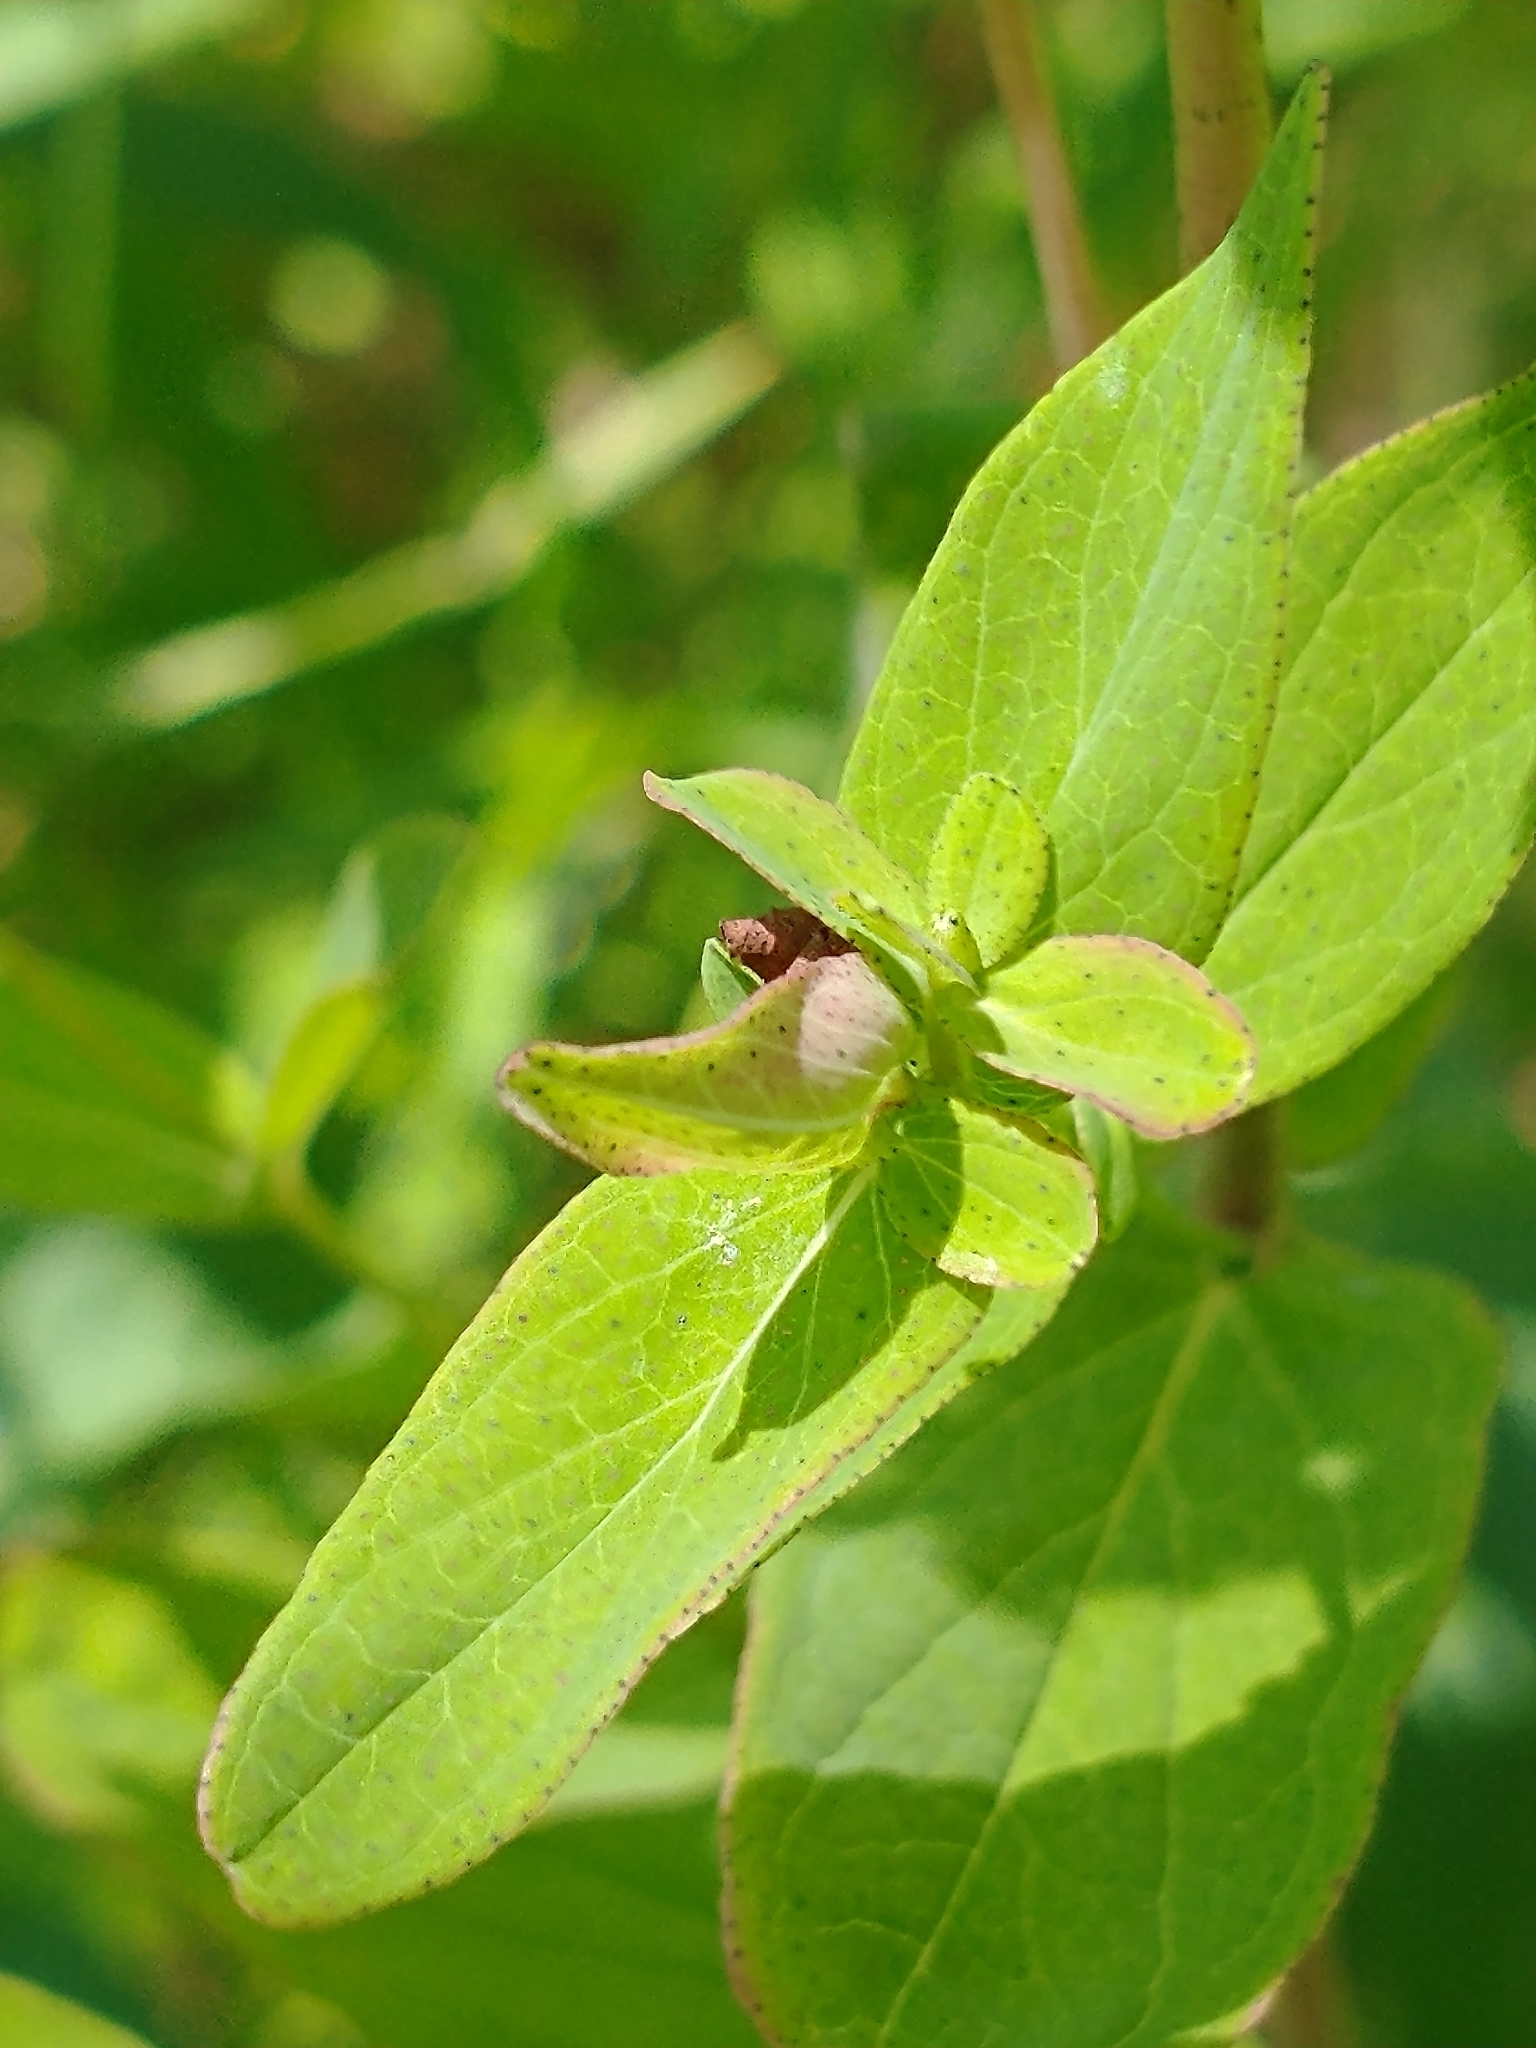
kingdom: Plantae
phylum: Tracheophyta
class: Magnoliopsida
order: Malpighiales
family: Hypericaceae
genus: Hypericum
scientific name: Hypericum punctatum
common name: Spotted st. john's-wort
